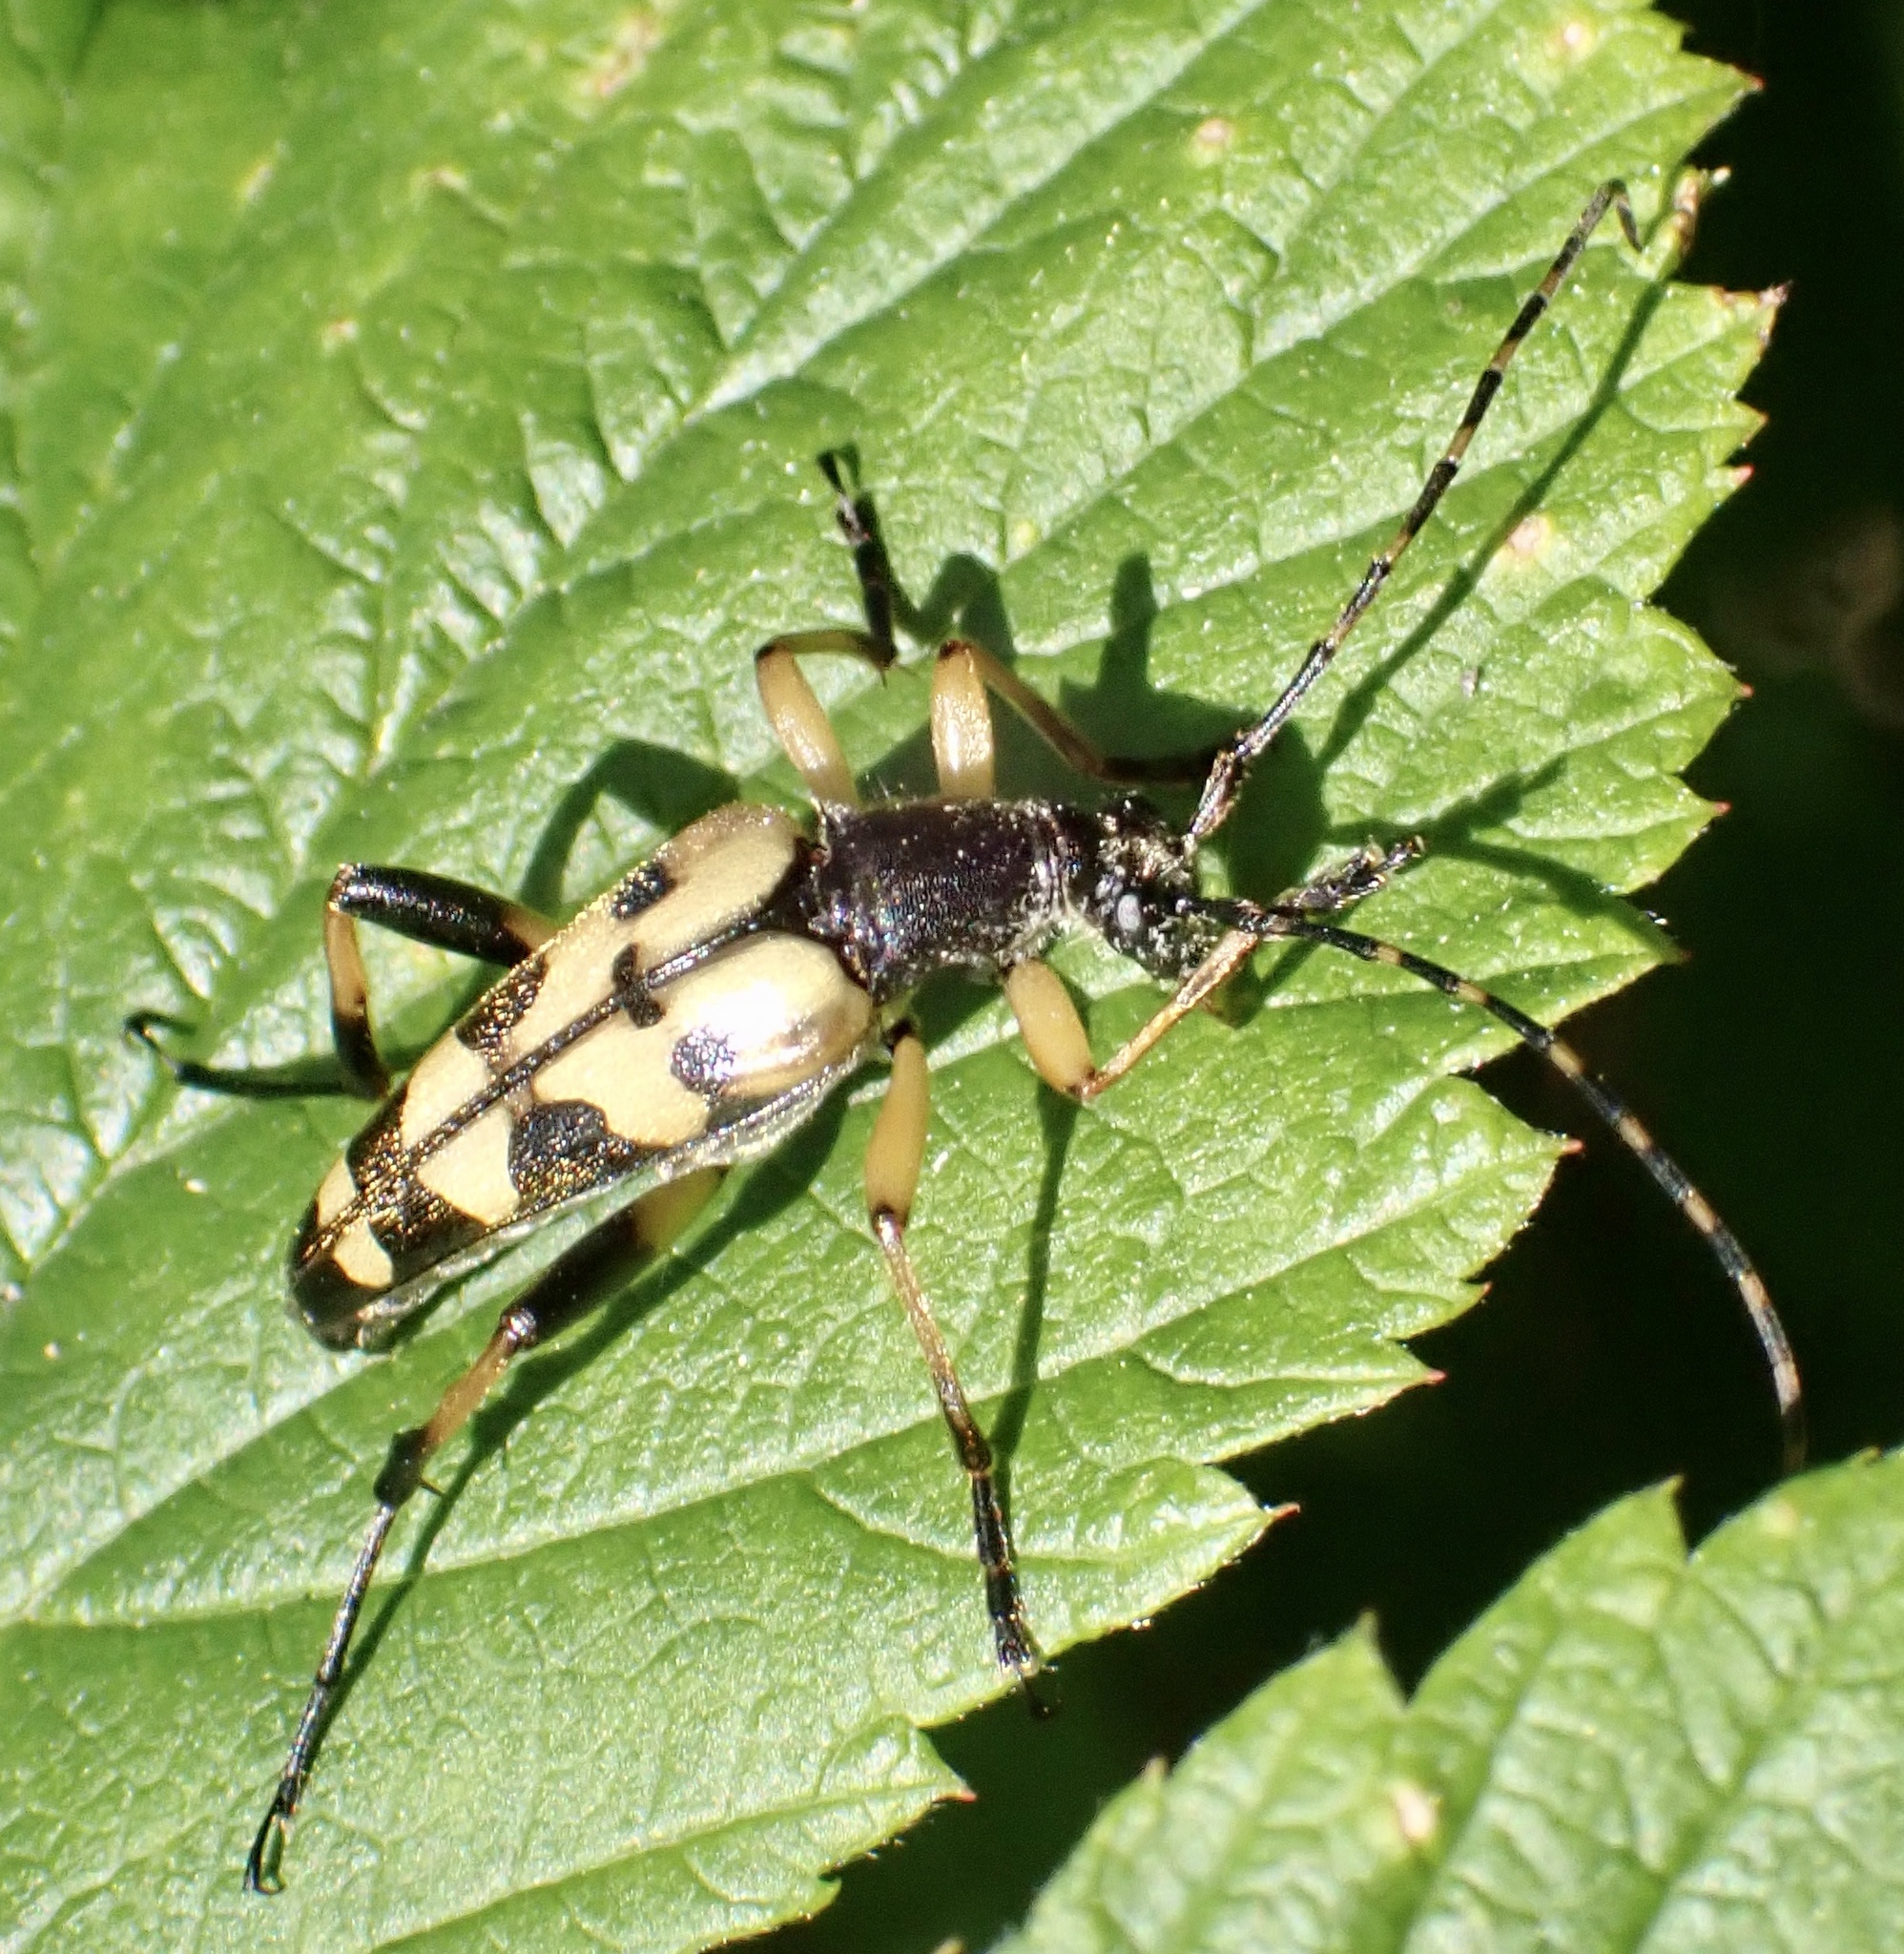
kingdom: Animalia
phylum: Arthropoda
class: Insecta
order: Coleoptera
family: Cerambycidae
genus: Rutpela
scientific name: Rutpela maculata
